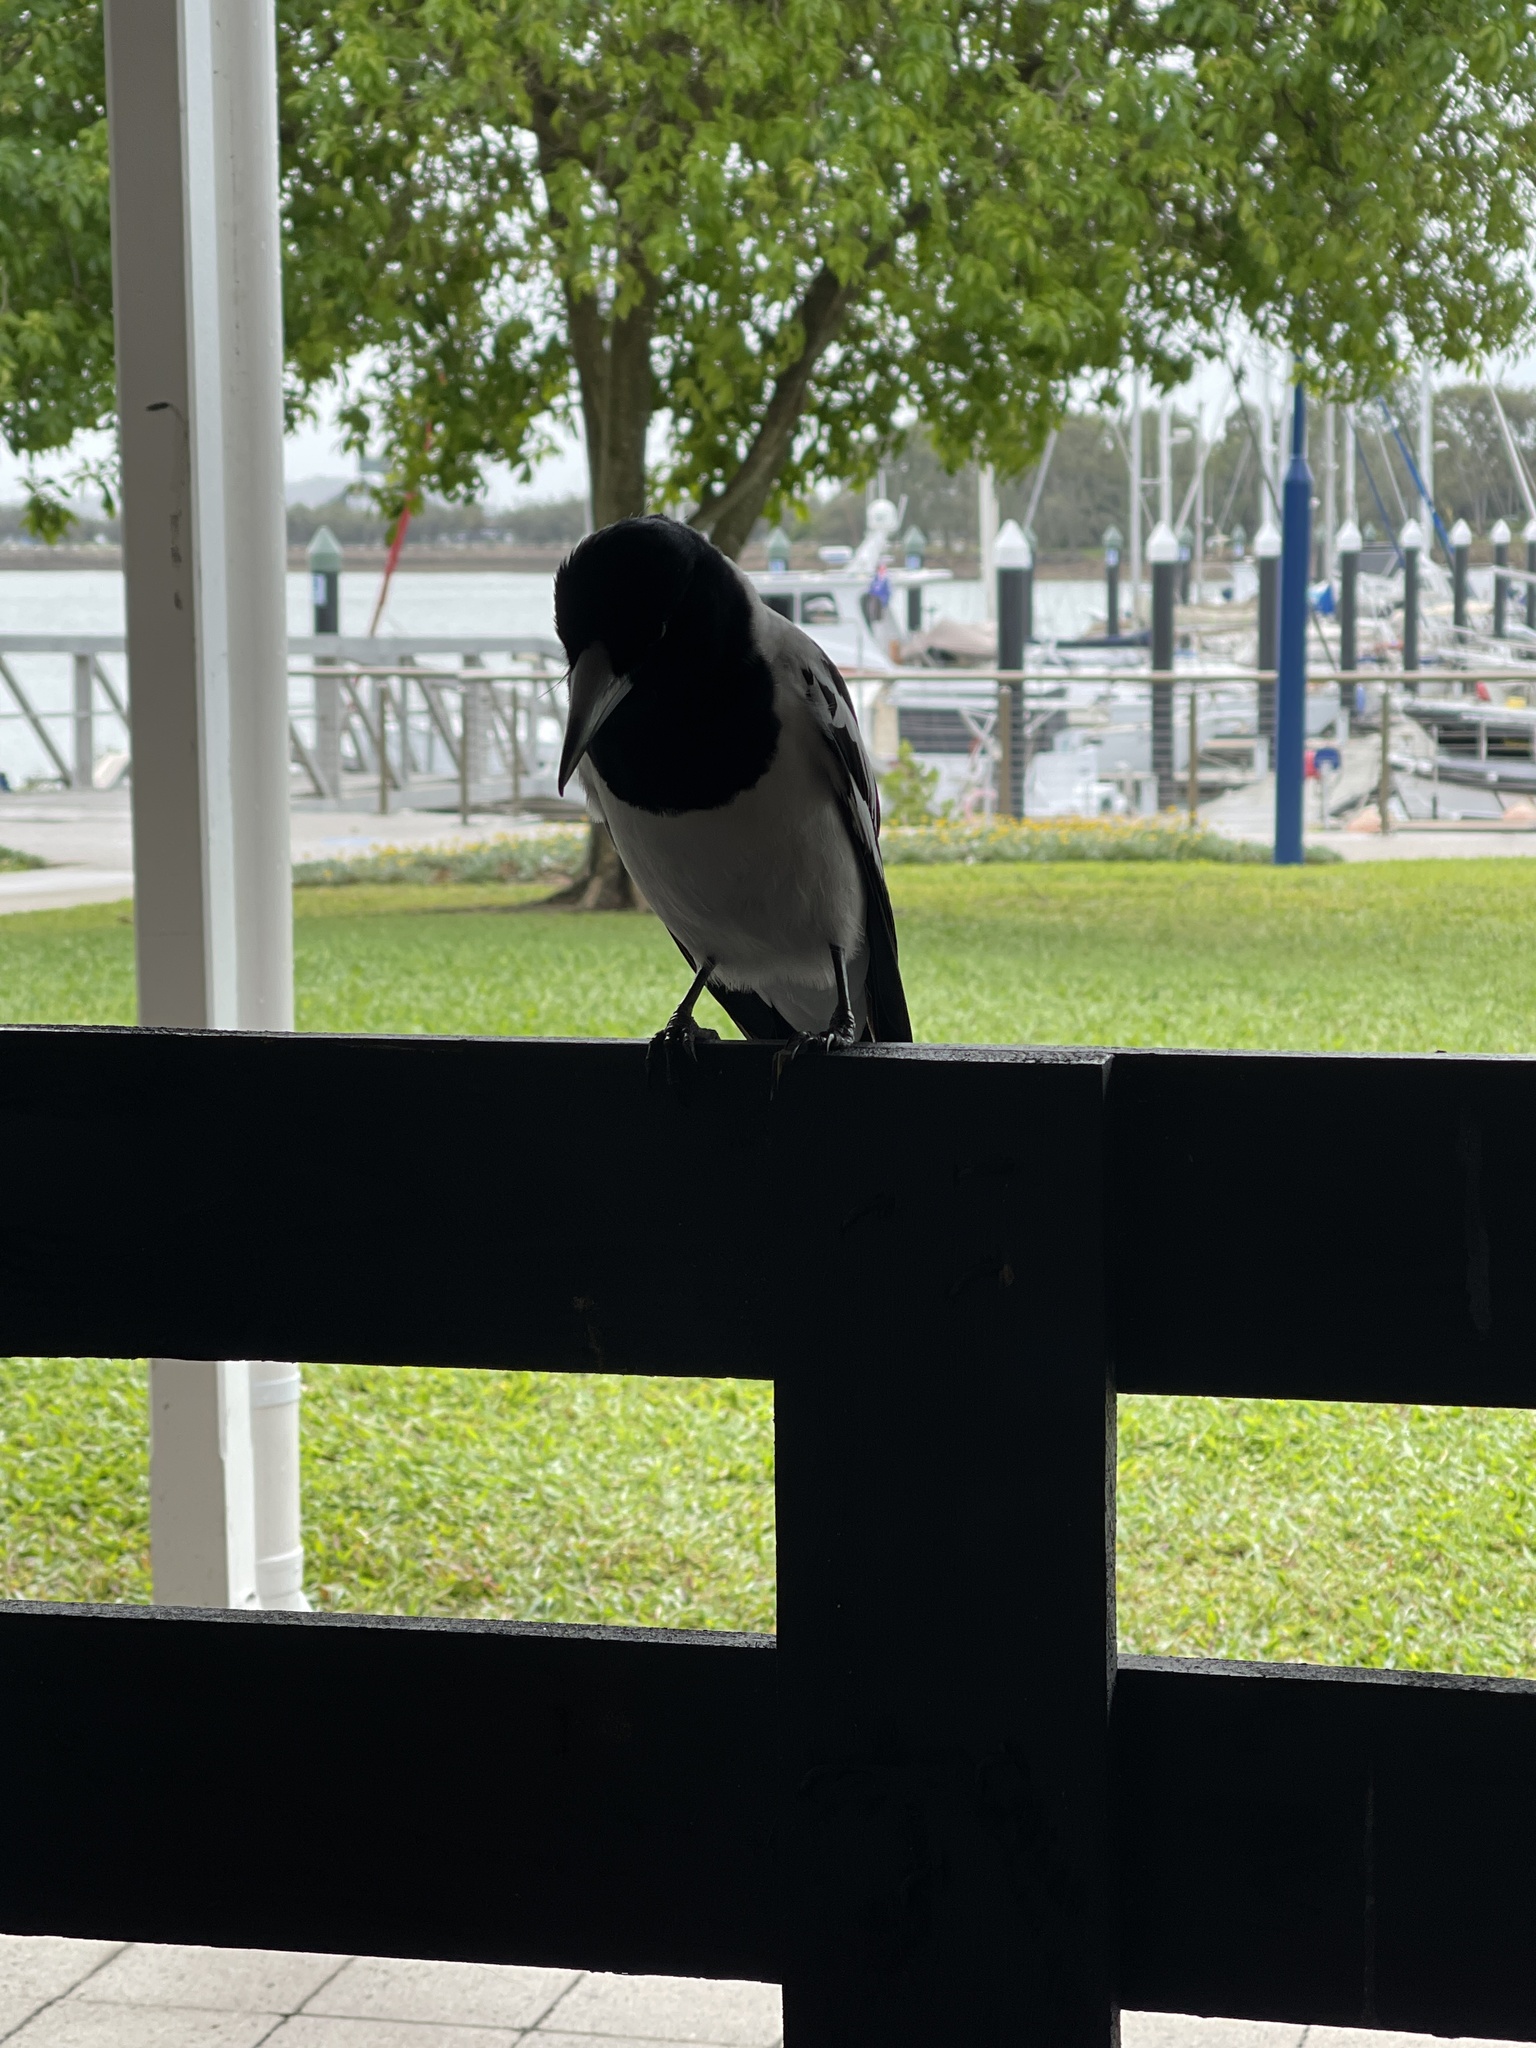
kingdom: Animalia
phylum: Chordata
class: Aves
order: Passeriformes
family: Cracticidae
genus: Cracticus
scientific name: Cracticus nigrogularis
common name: Pied butcherbird
